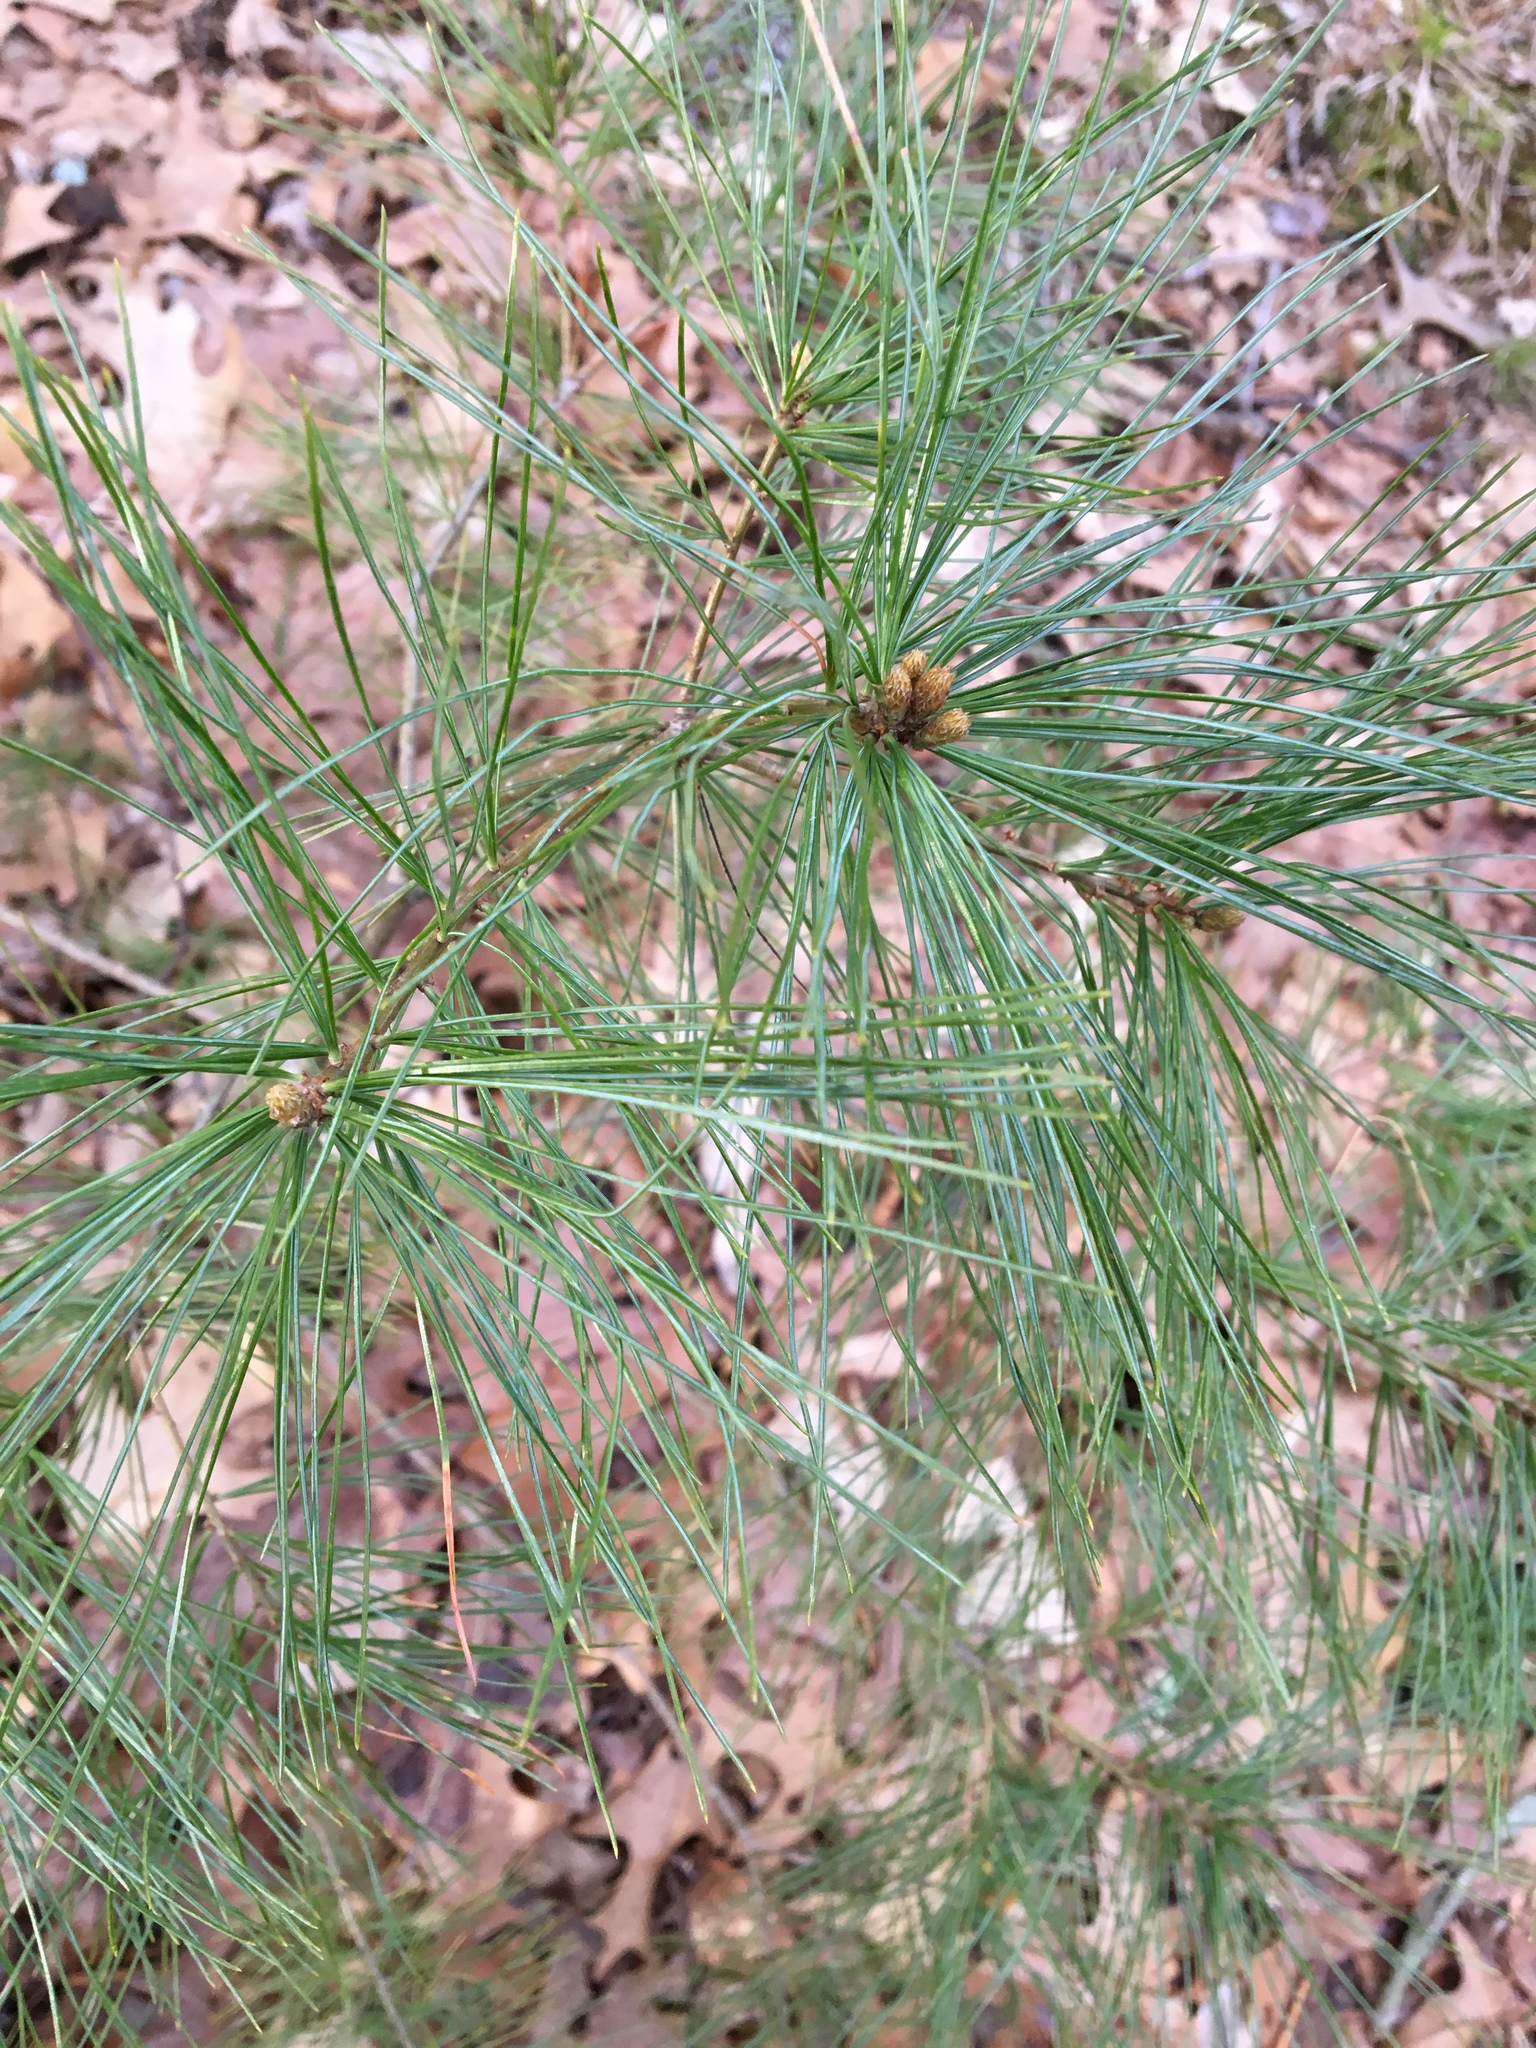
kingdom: Plantae
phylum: Tracheophyta
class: Pinopsida
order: Pinales
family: Pinaceae
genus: Pinus
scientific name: Pinus strobus
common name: Weymouth pine
